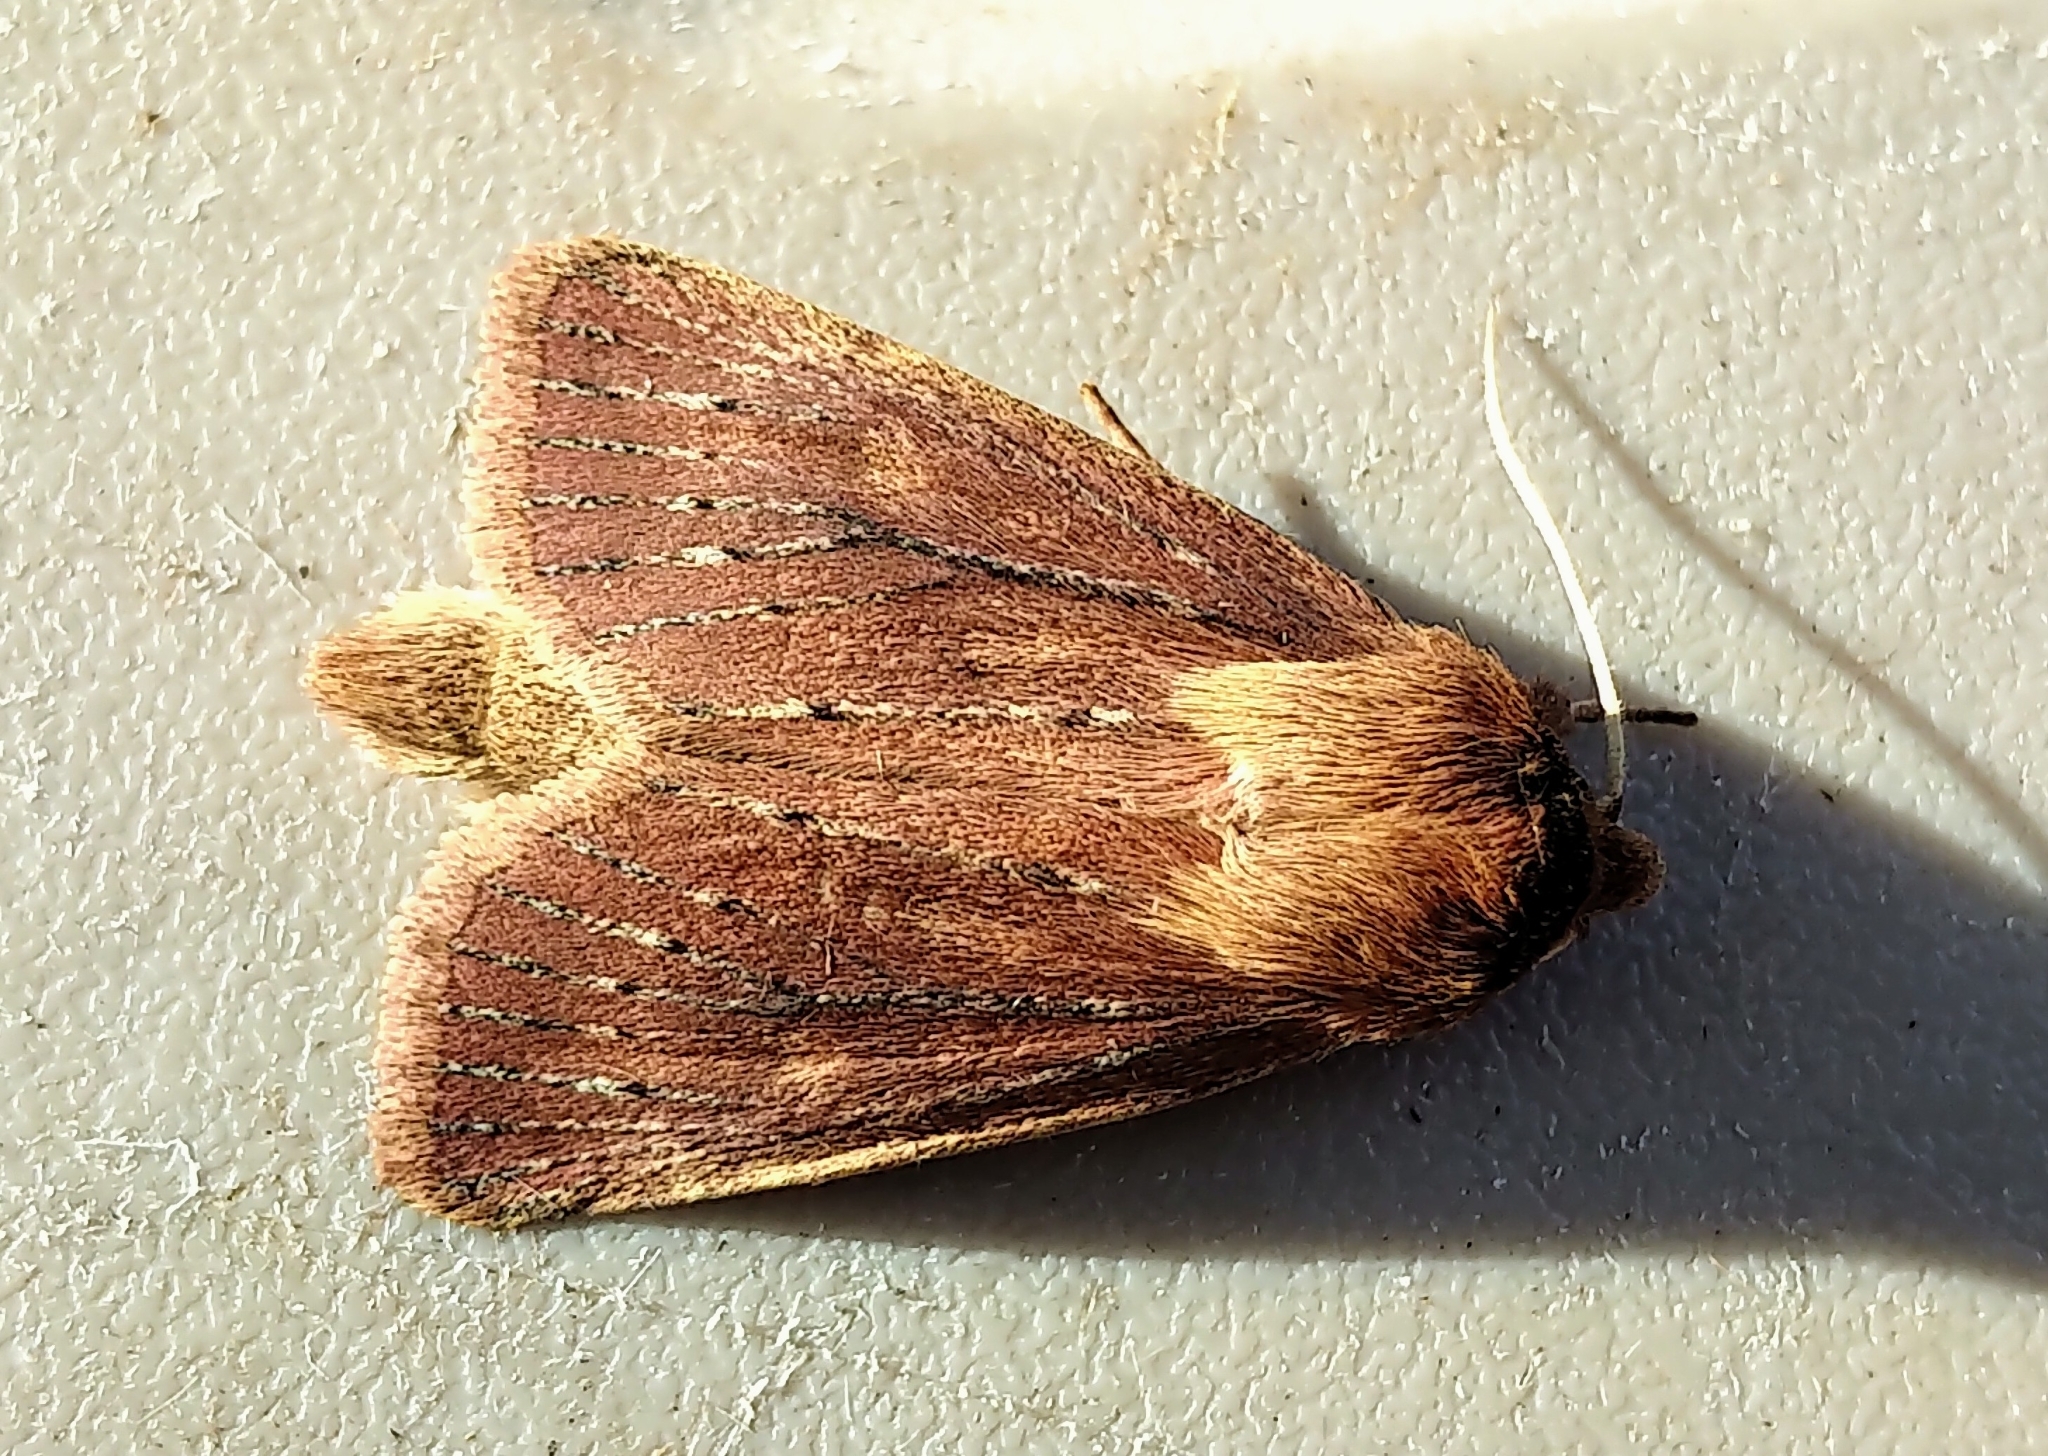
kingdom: Animalia
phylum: Arthropoda
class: Insecta
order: Lepidoptera
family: Noctuidae
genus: Globia
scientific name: Globia subflava
